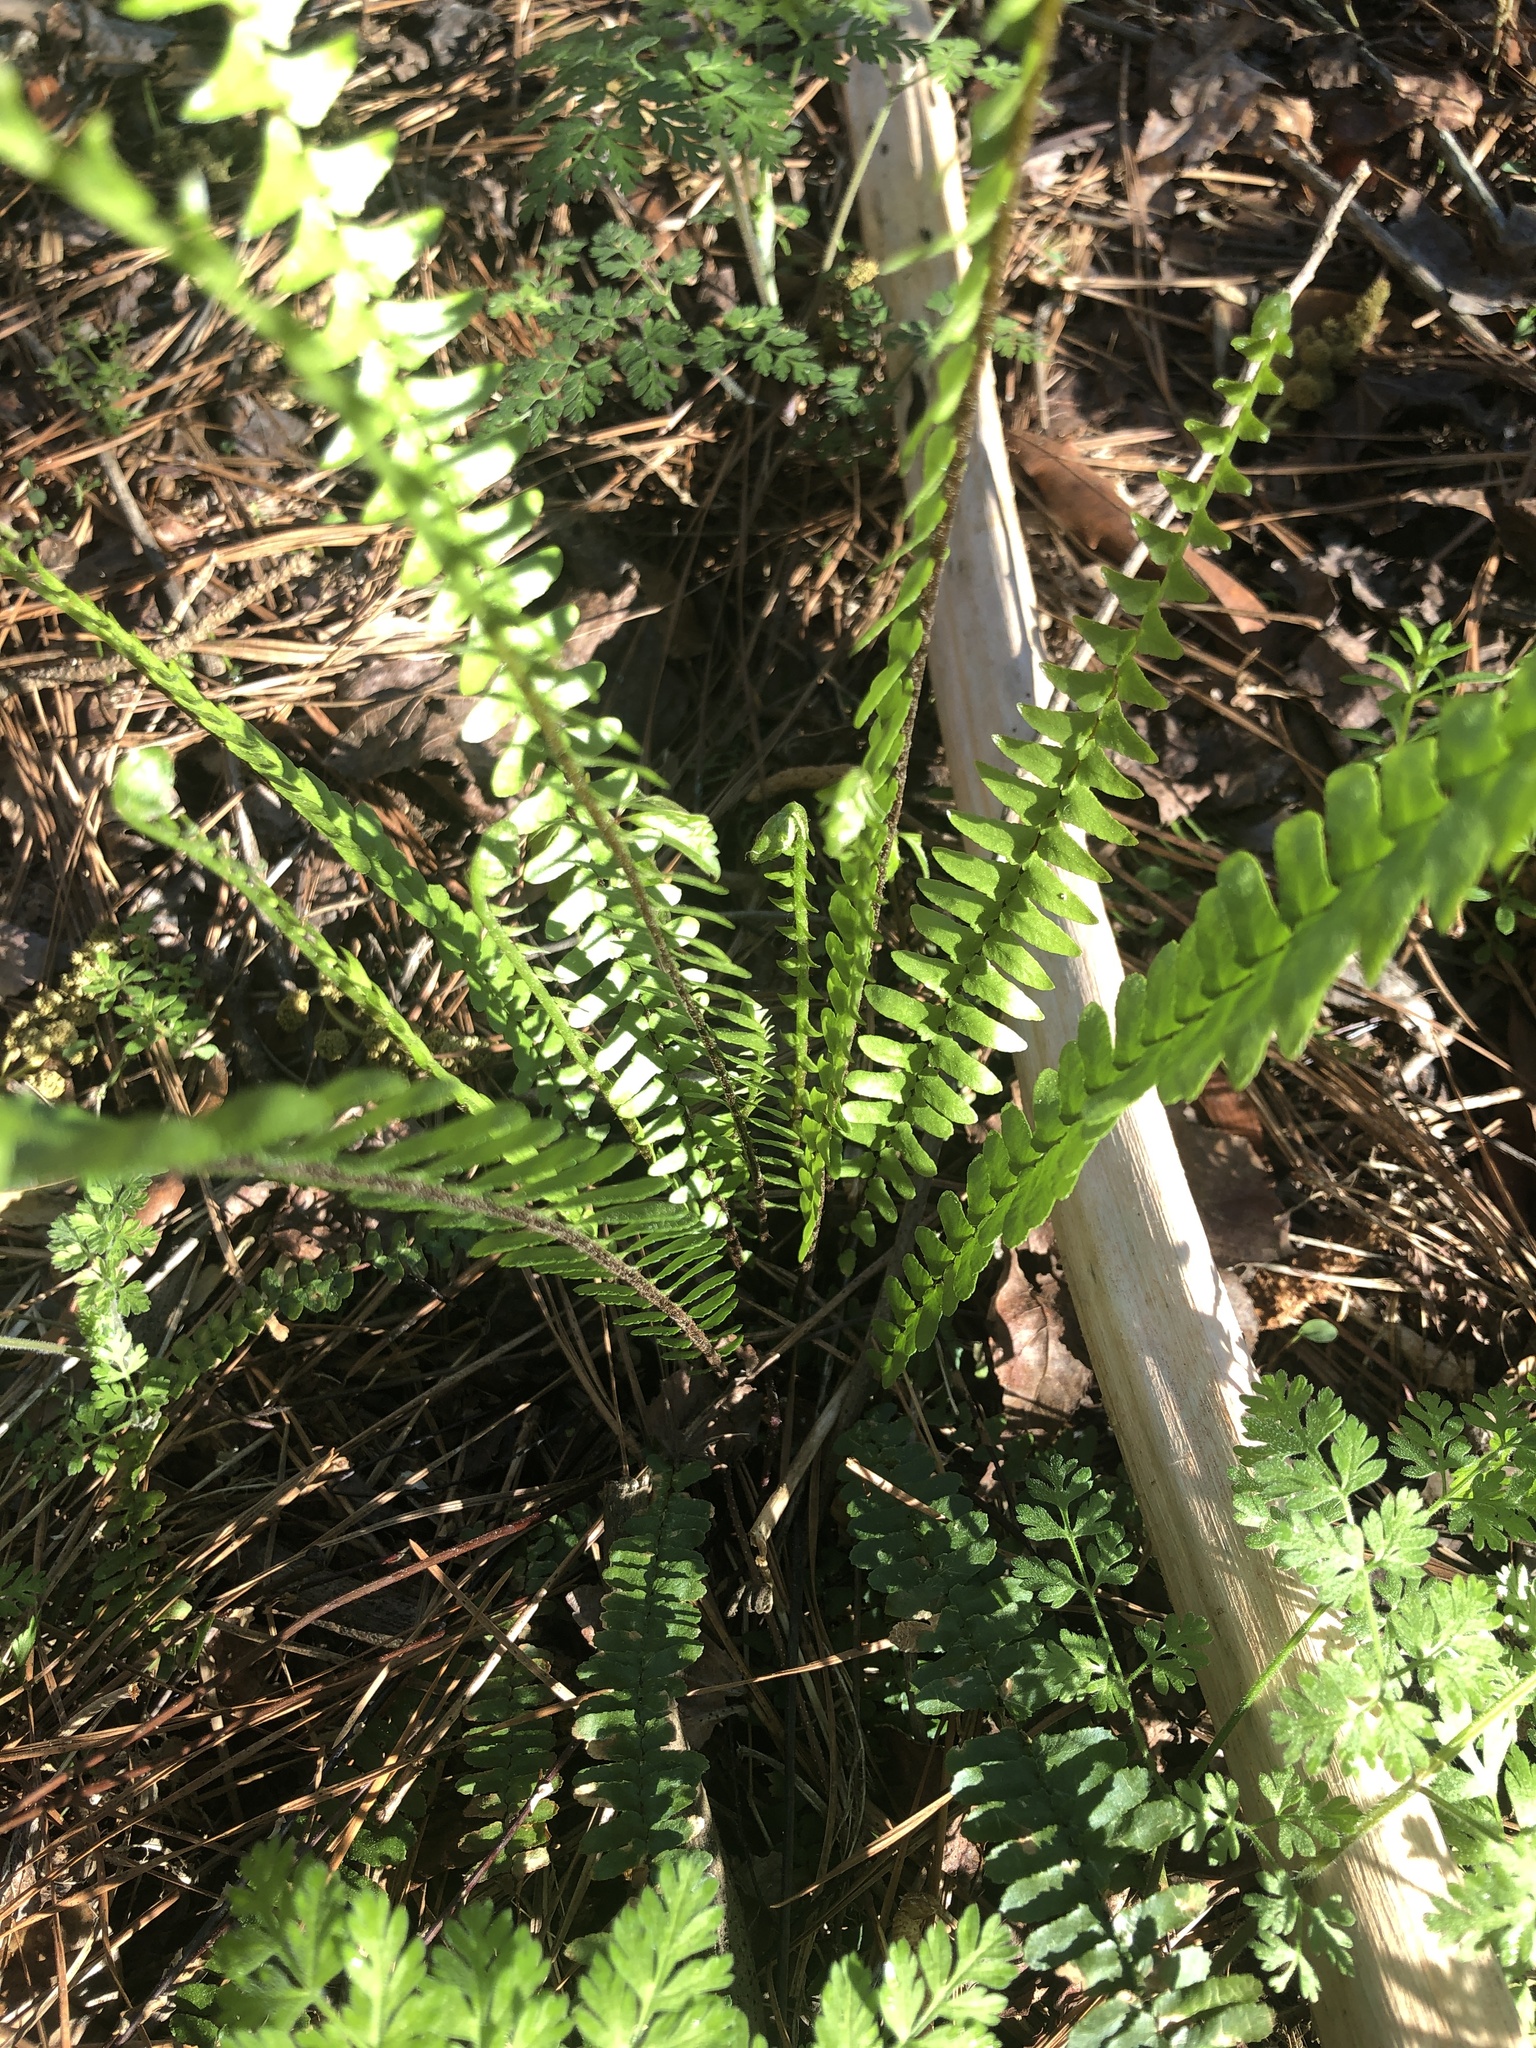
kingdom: Plantae
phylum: Tracheophyta
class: Polypodiopsida
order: Polypodiales
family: Aspleniaceae
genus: Asplenium
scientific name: Asplenium platyneuron
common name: Ebony spleenwort
